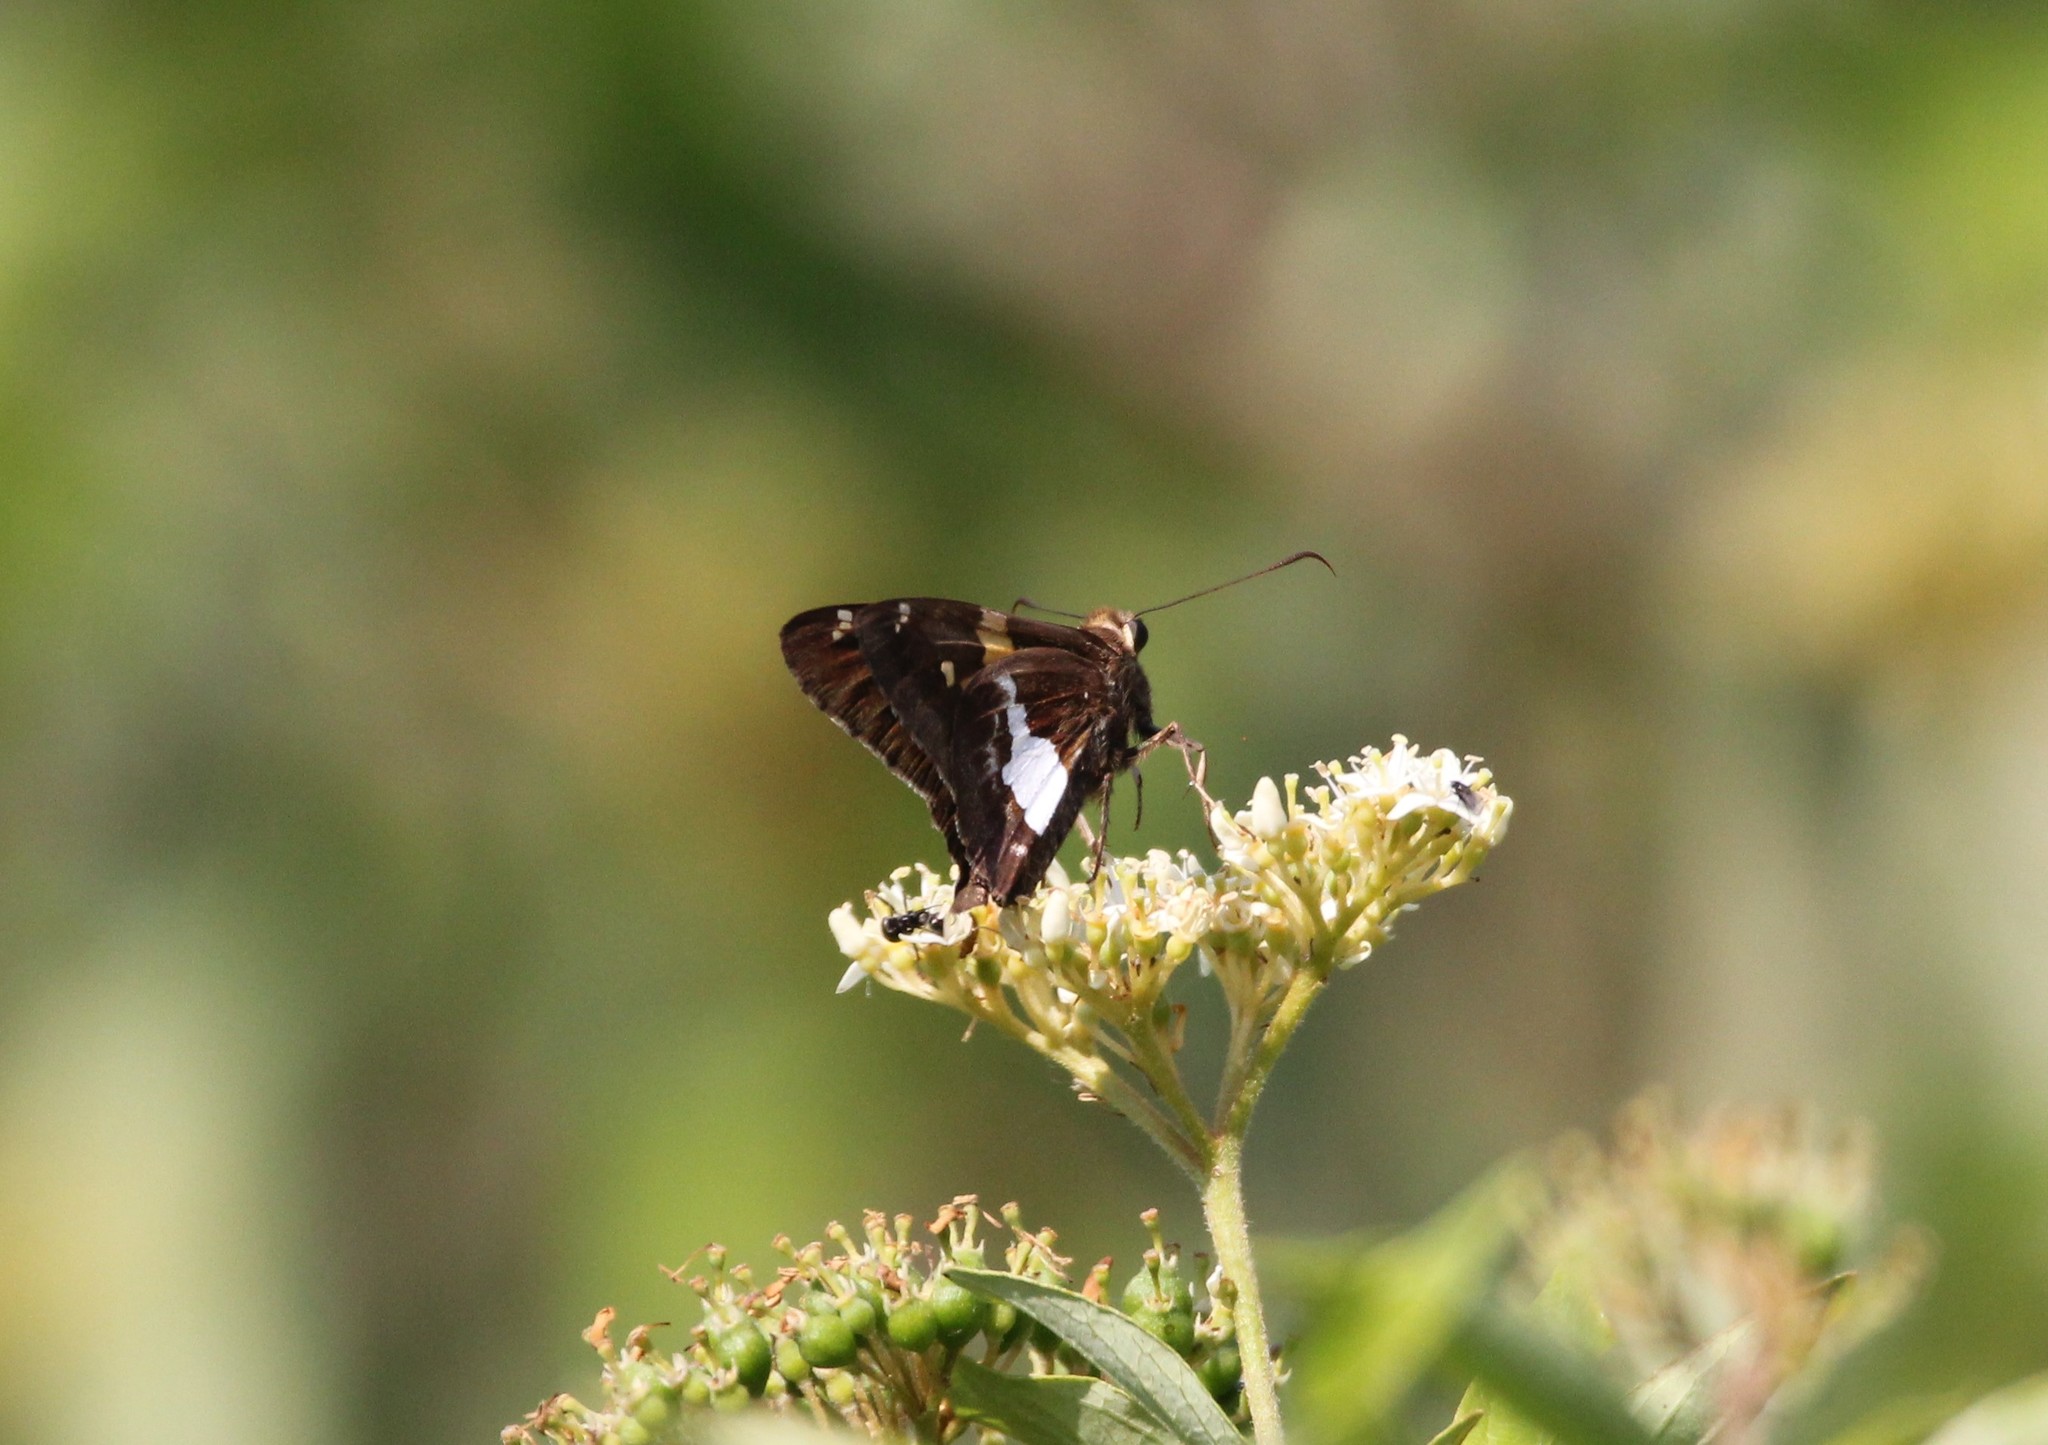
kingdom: Animalia
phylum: Arthropoda
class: Insecta
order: Lepidoptera
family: Hesperiidae
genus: Epargyreus
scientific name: Epargyreus clarus
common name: Silver-spotted skipper
